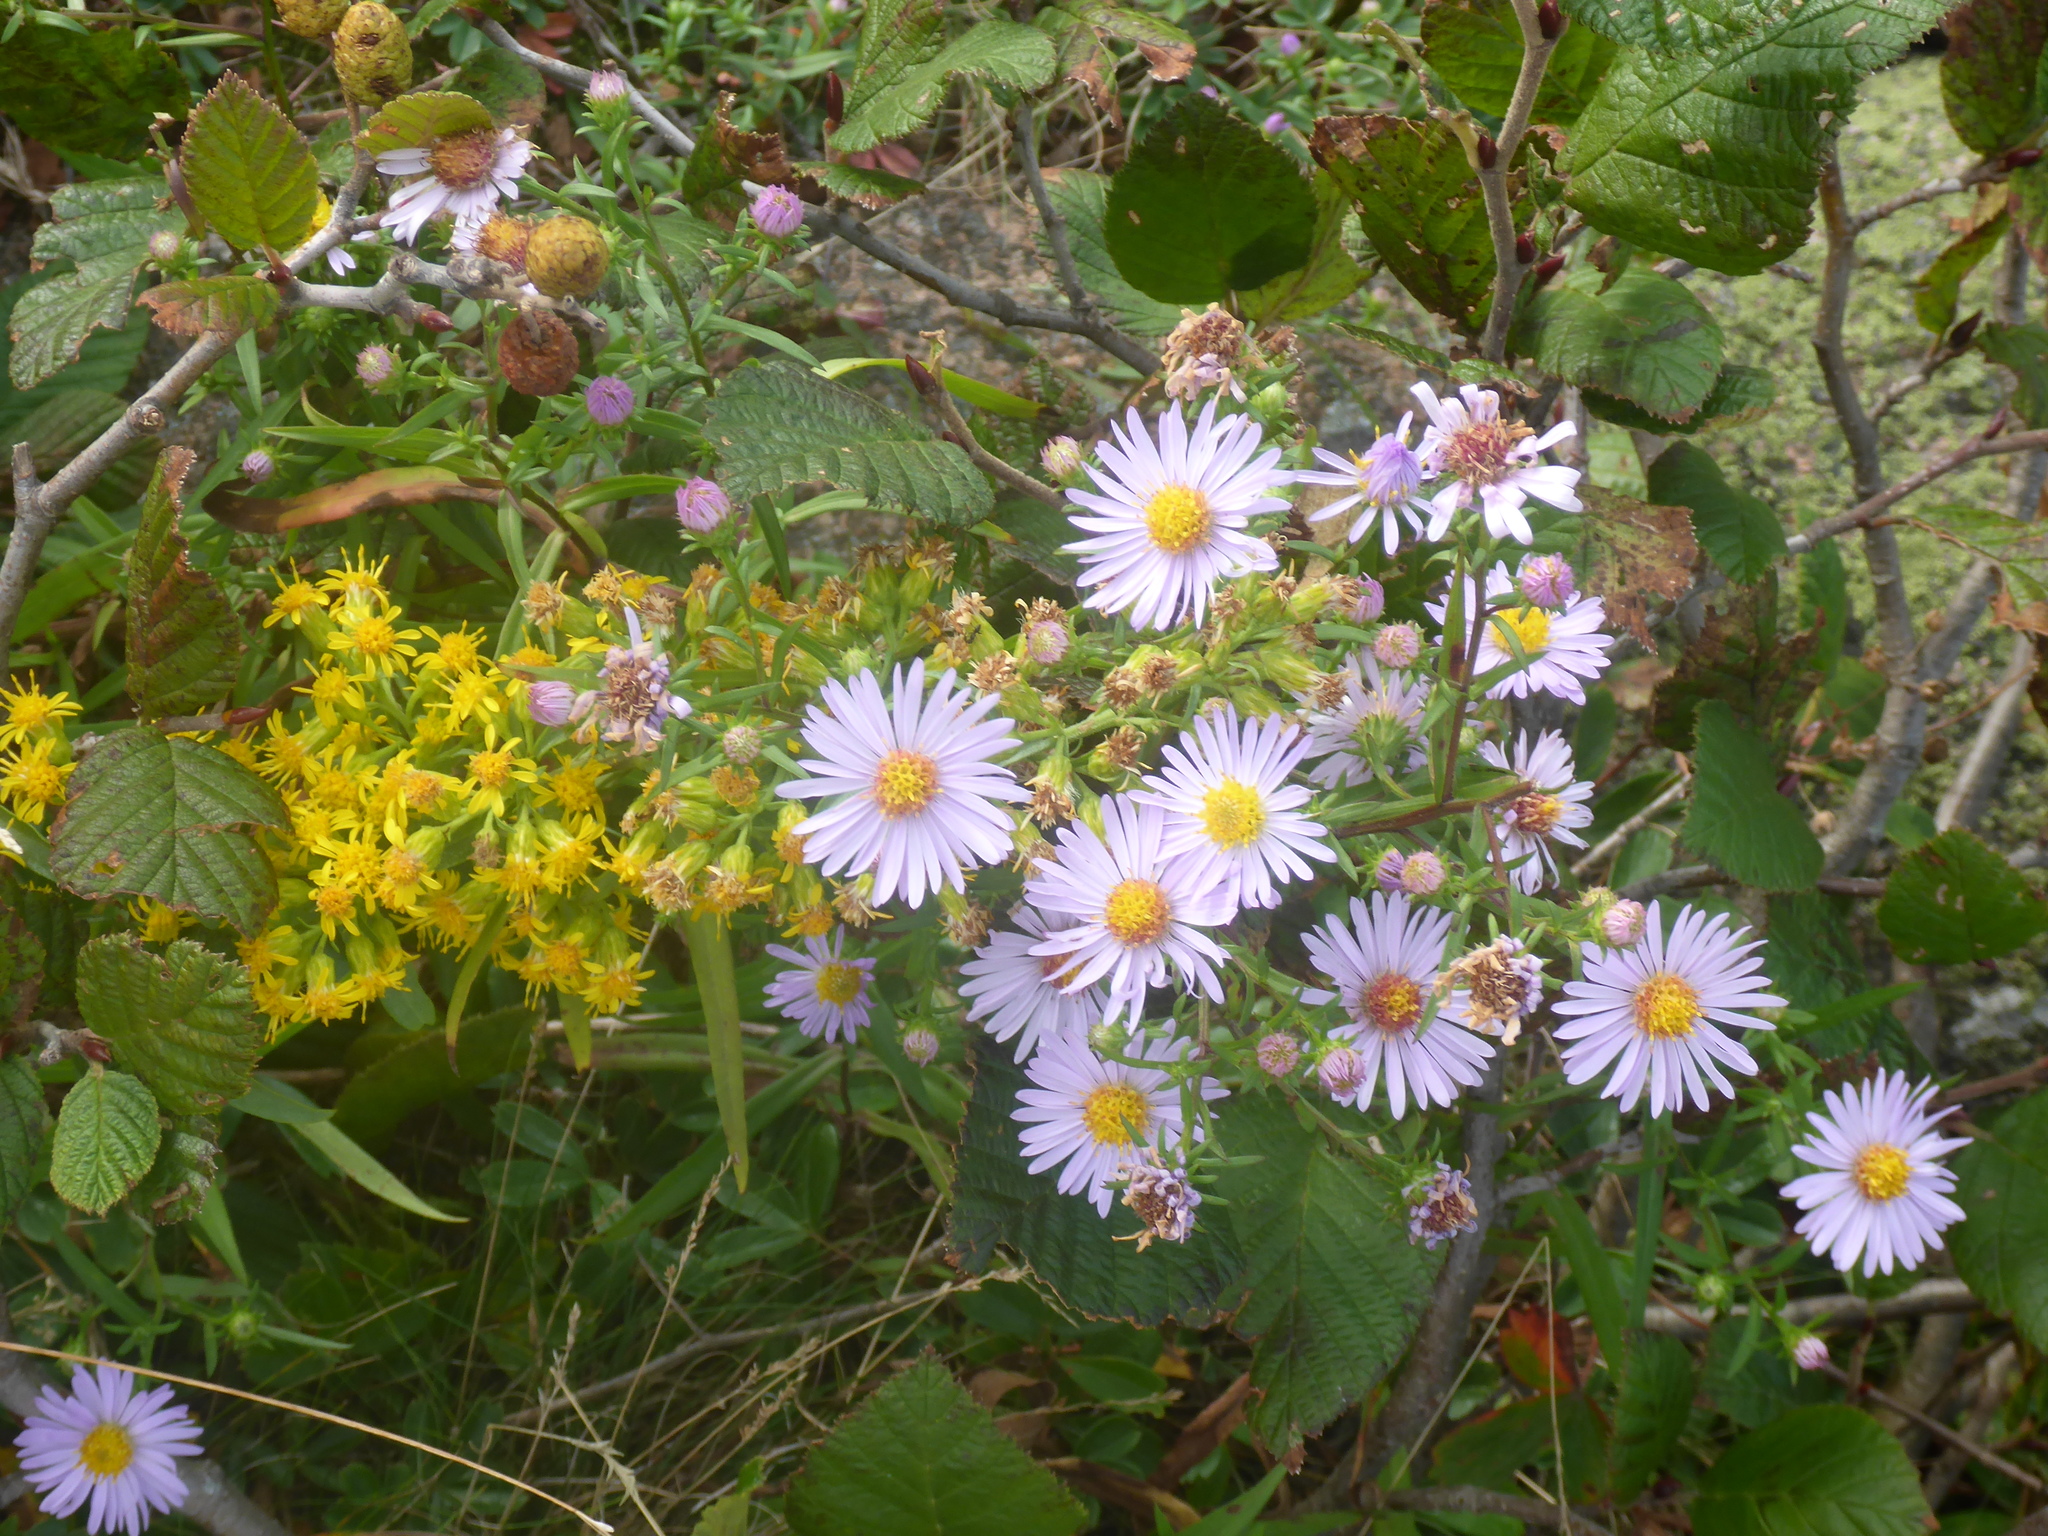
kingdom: Plantae
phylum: Tracheophyta
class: Magnoliopsida
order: Asterales
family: Asteraceae
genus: Symphyotrichum
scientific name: Symphyotrichum novi-belgii
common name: Michaelmas daisy
